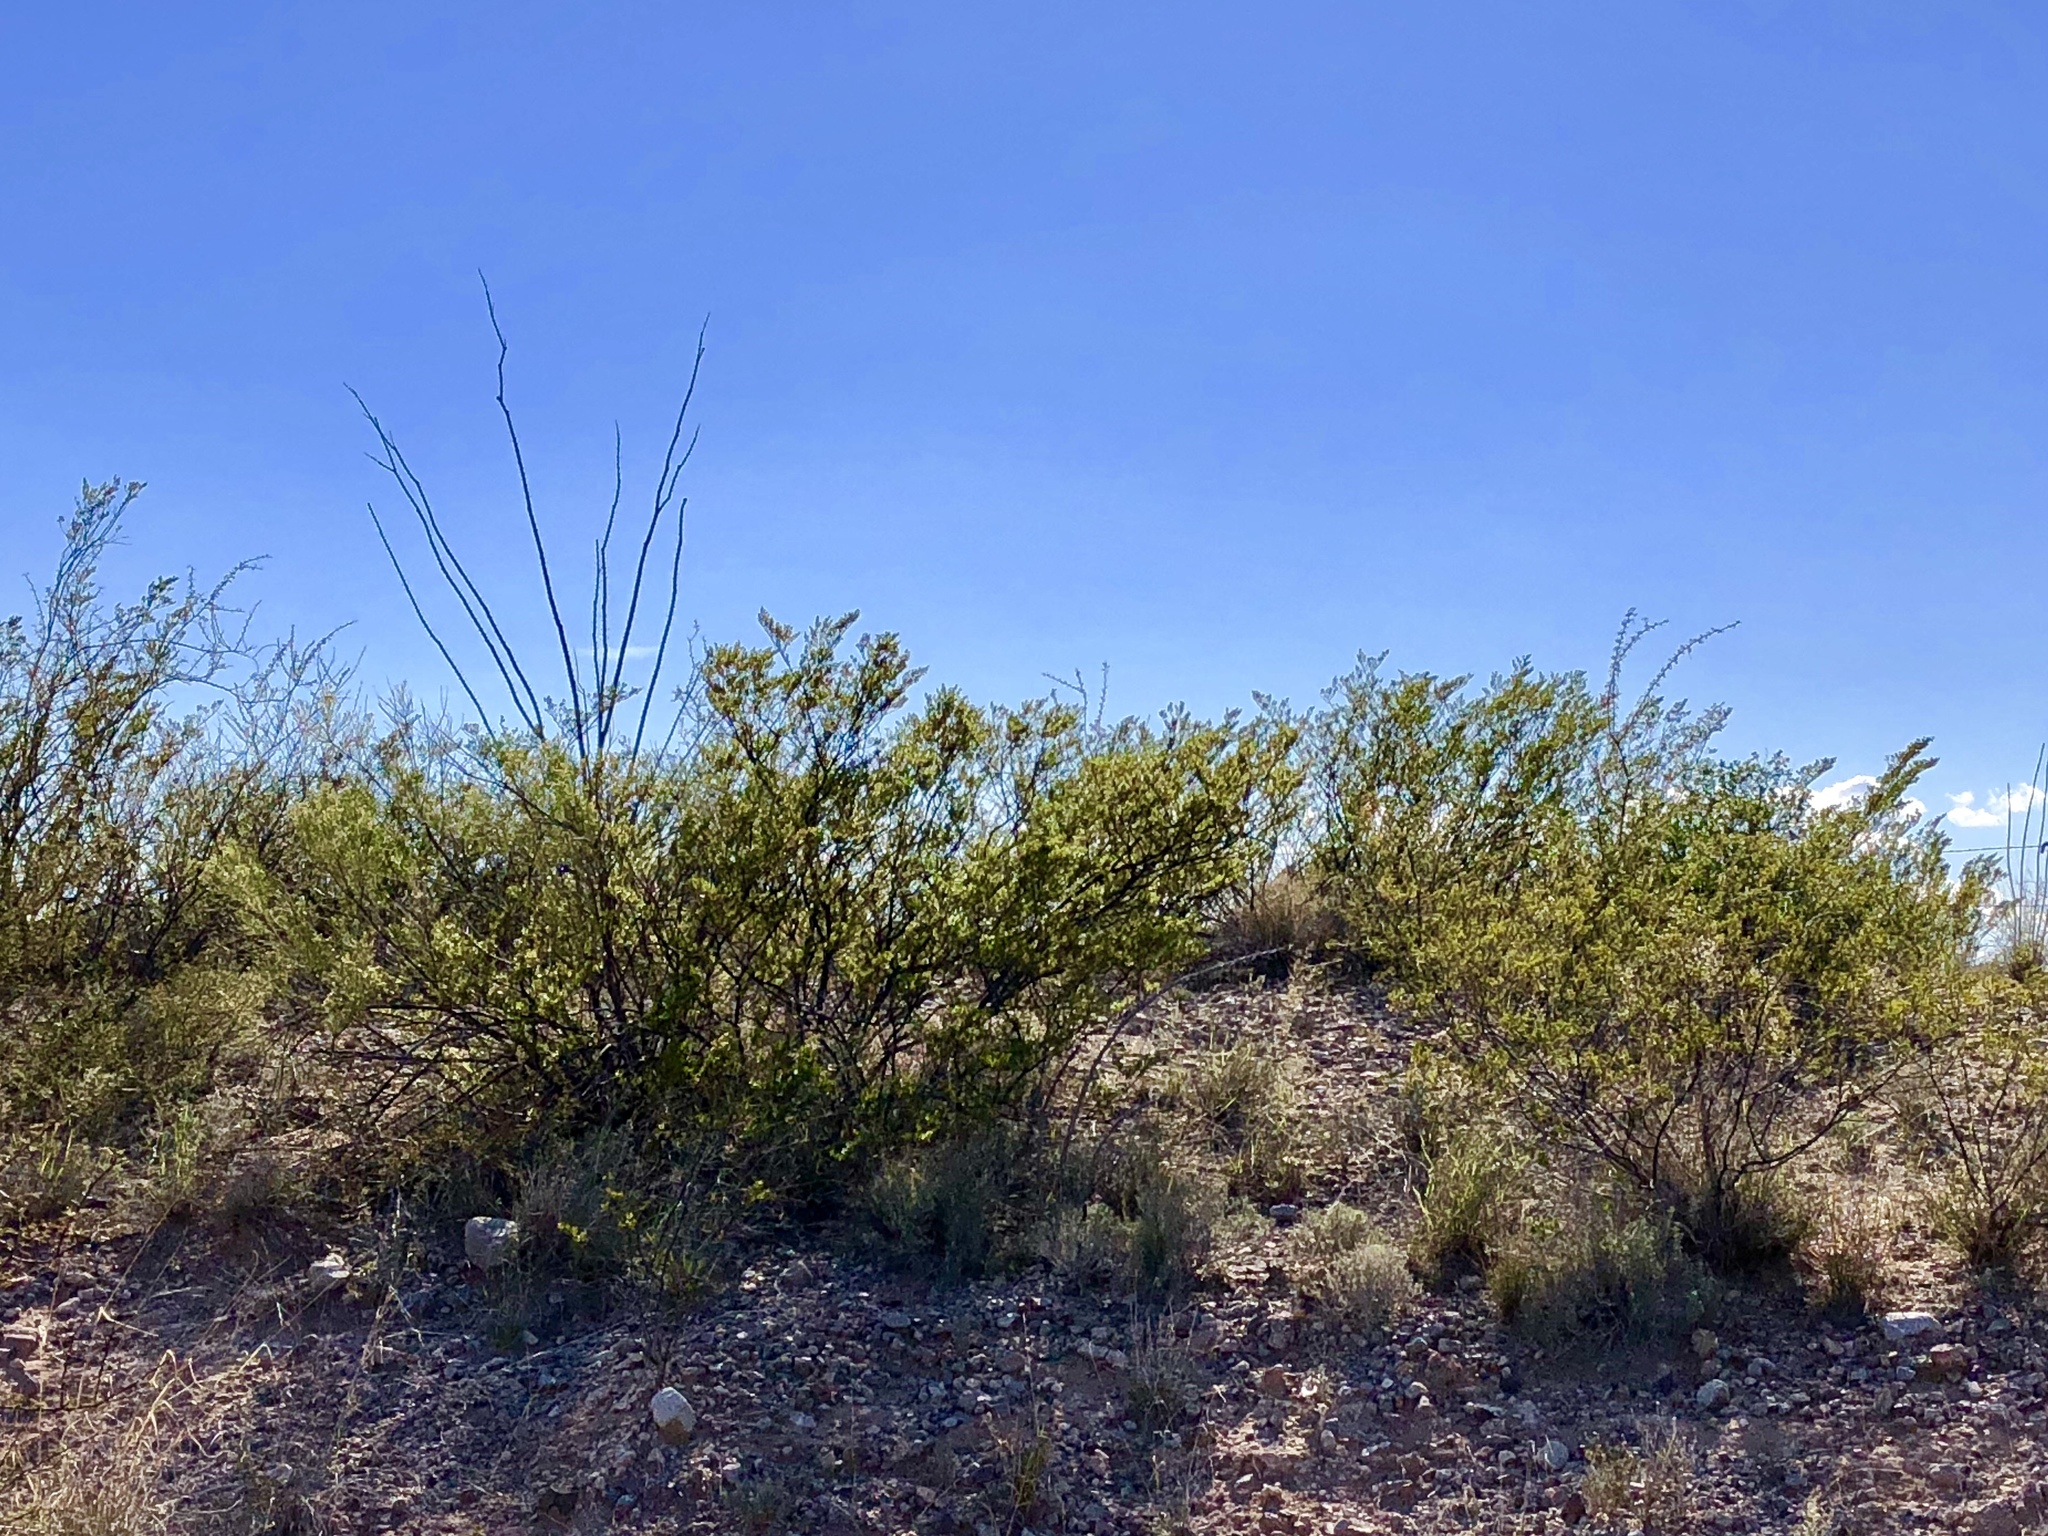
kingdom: Plantae
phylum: Tracheophyta
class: Magnoliopsida
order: Zygophyllales
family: Zygophyllaceae
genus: Larrea
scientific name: Larrea tridentata
